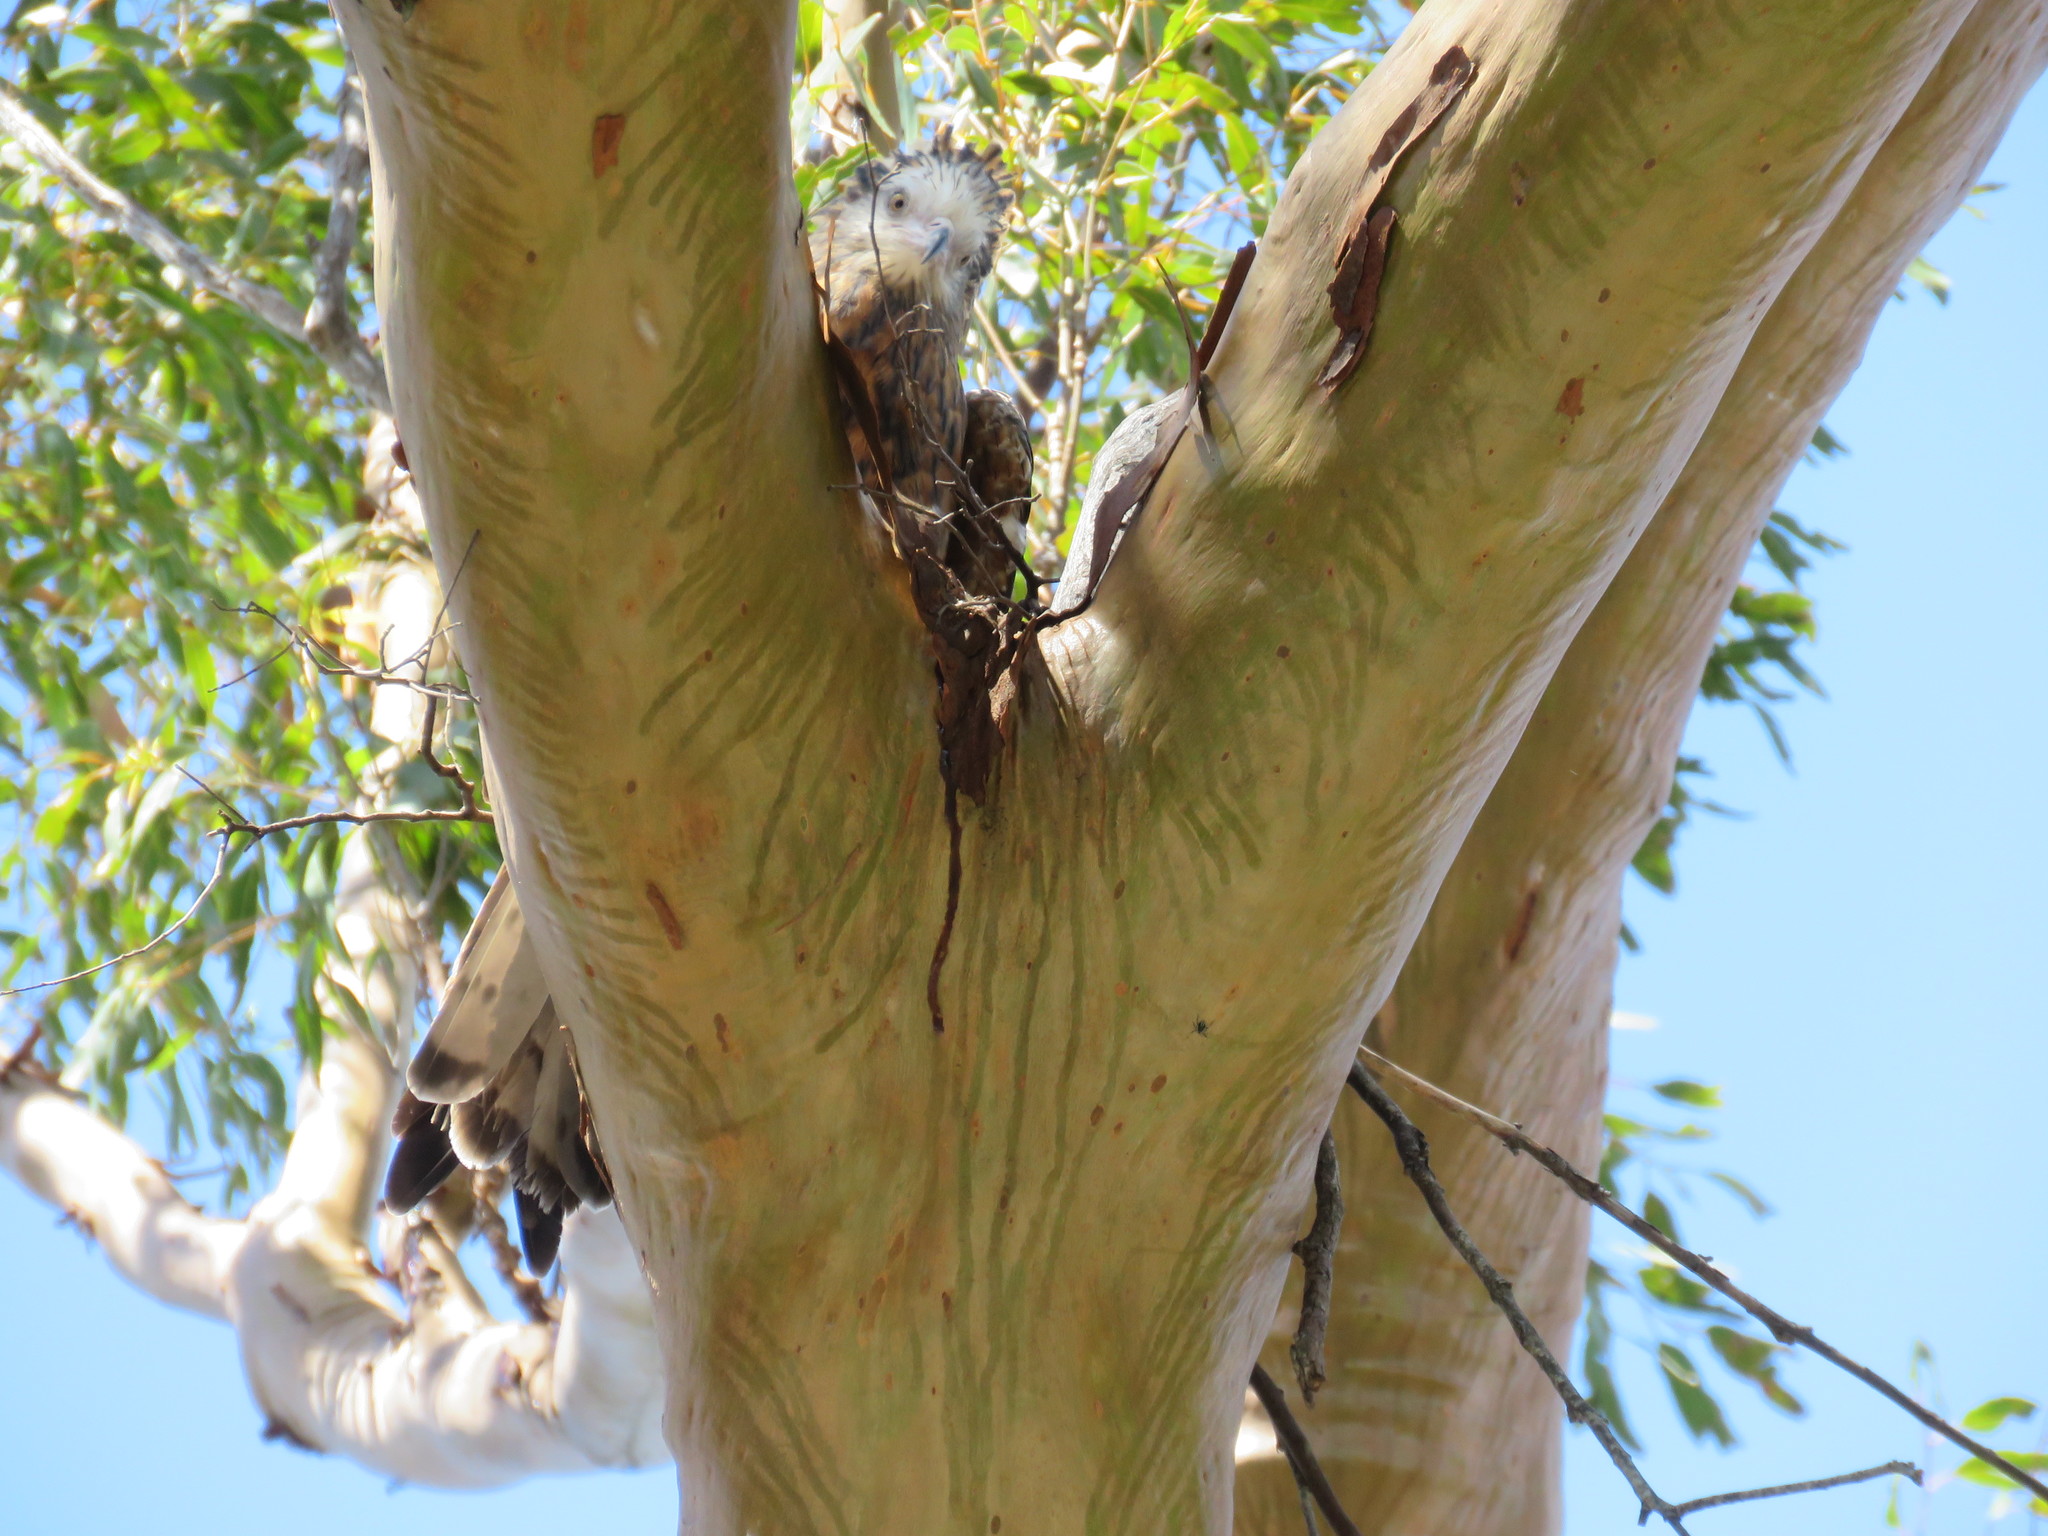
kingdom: Animalia
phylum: Chordata
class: Aves
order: Accipitriformes
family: Accipitridae
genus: Lophoictinia
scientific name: Lophoictinia isura
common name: Square-tailed kite
